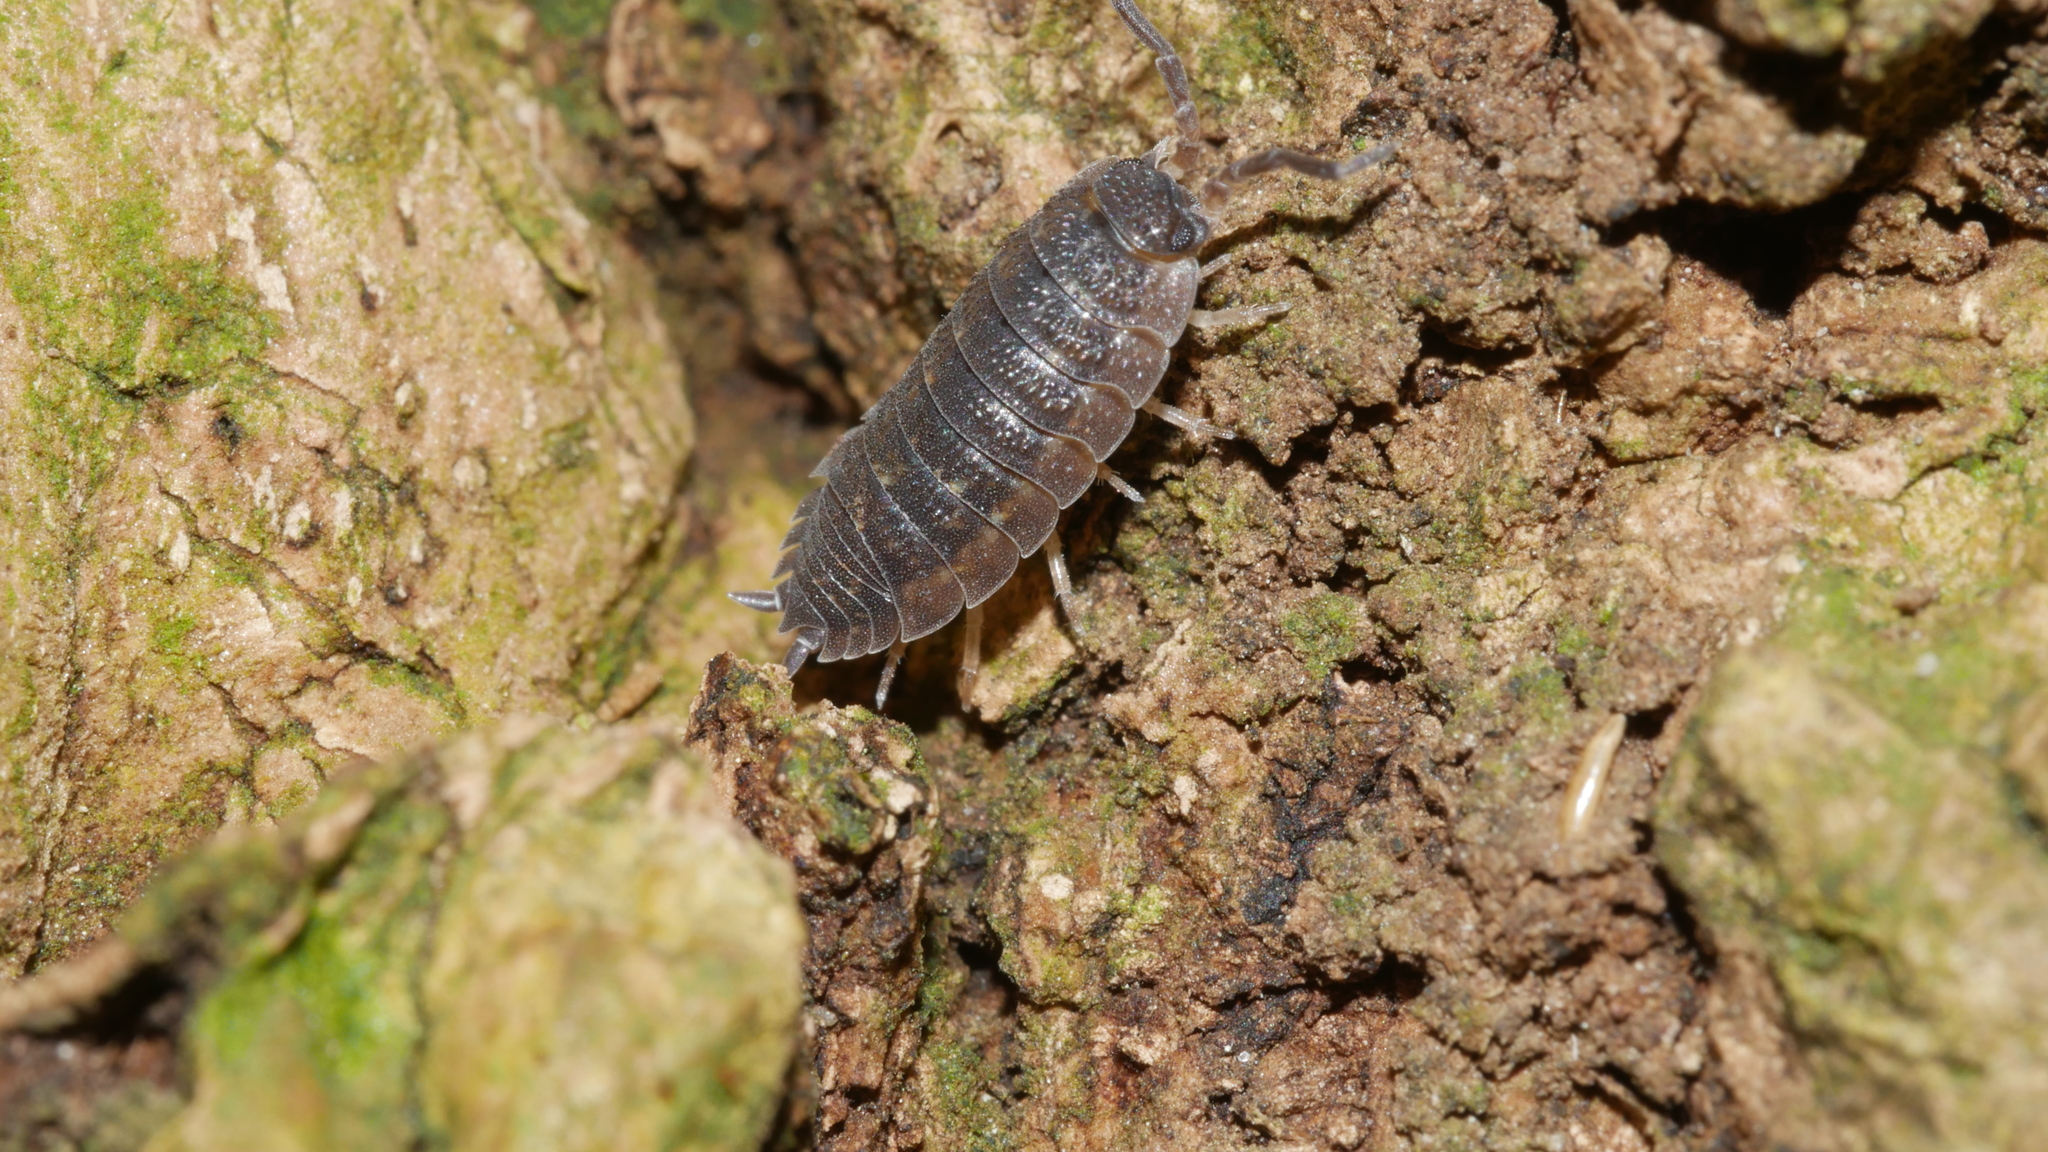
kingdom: Animalia
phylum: Arthropoda
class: Malacostraca
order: Isopoda
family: Porcellionidae
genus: Porcellio
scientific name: Porcellio scaber
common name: Common rough woodlouse
